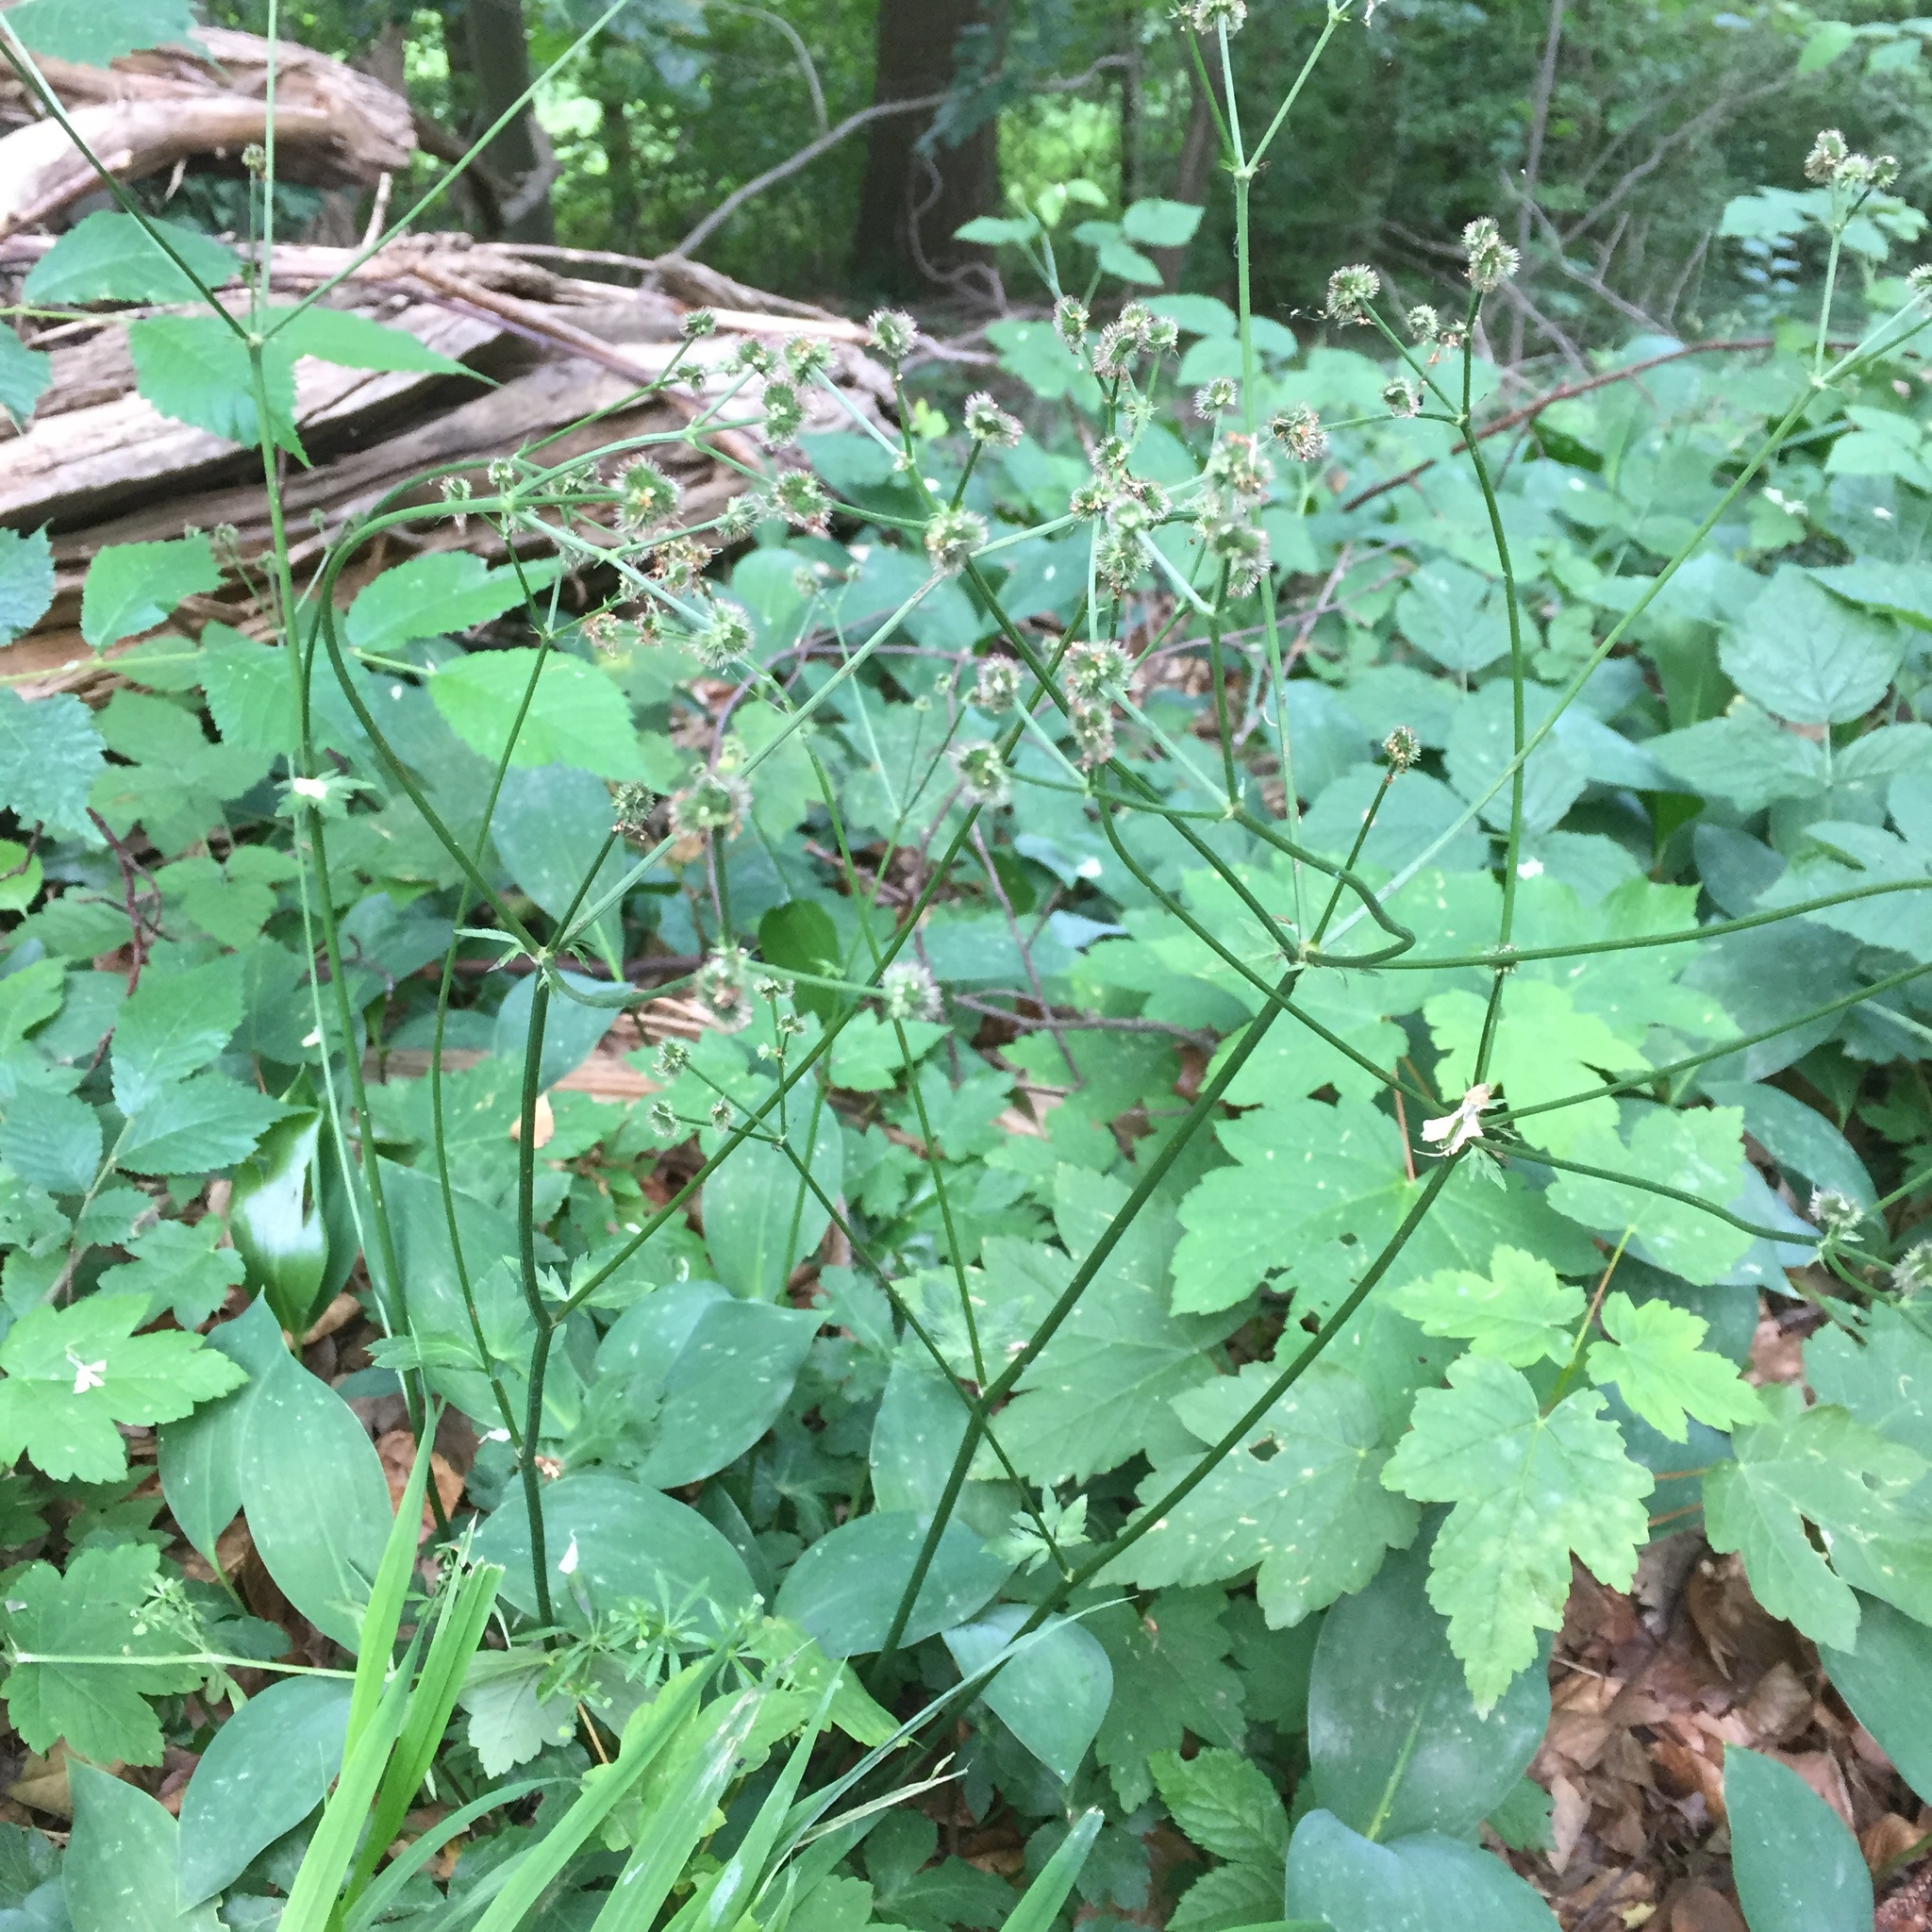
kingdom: Plantae
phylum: Tracheophyta
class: Magnoliopsida
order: Apiales
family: Apiaceae
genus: Sanicula
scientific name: Sanicula europaea
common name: Sanicle
